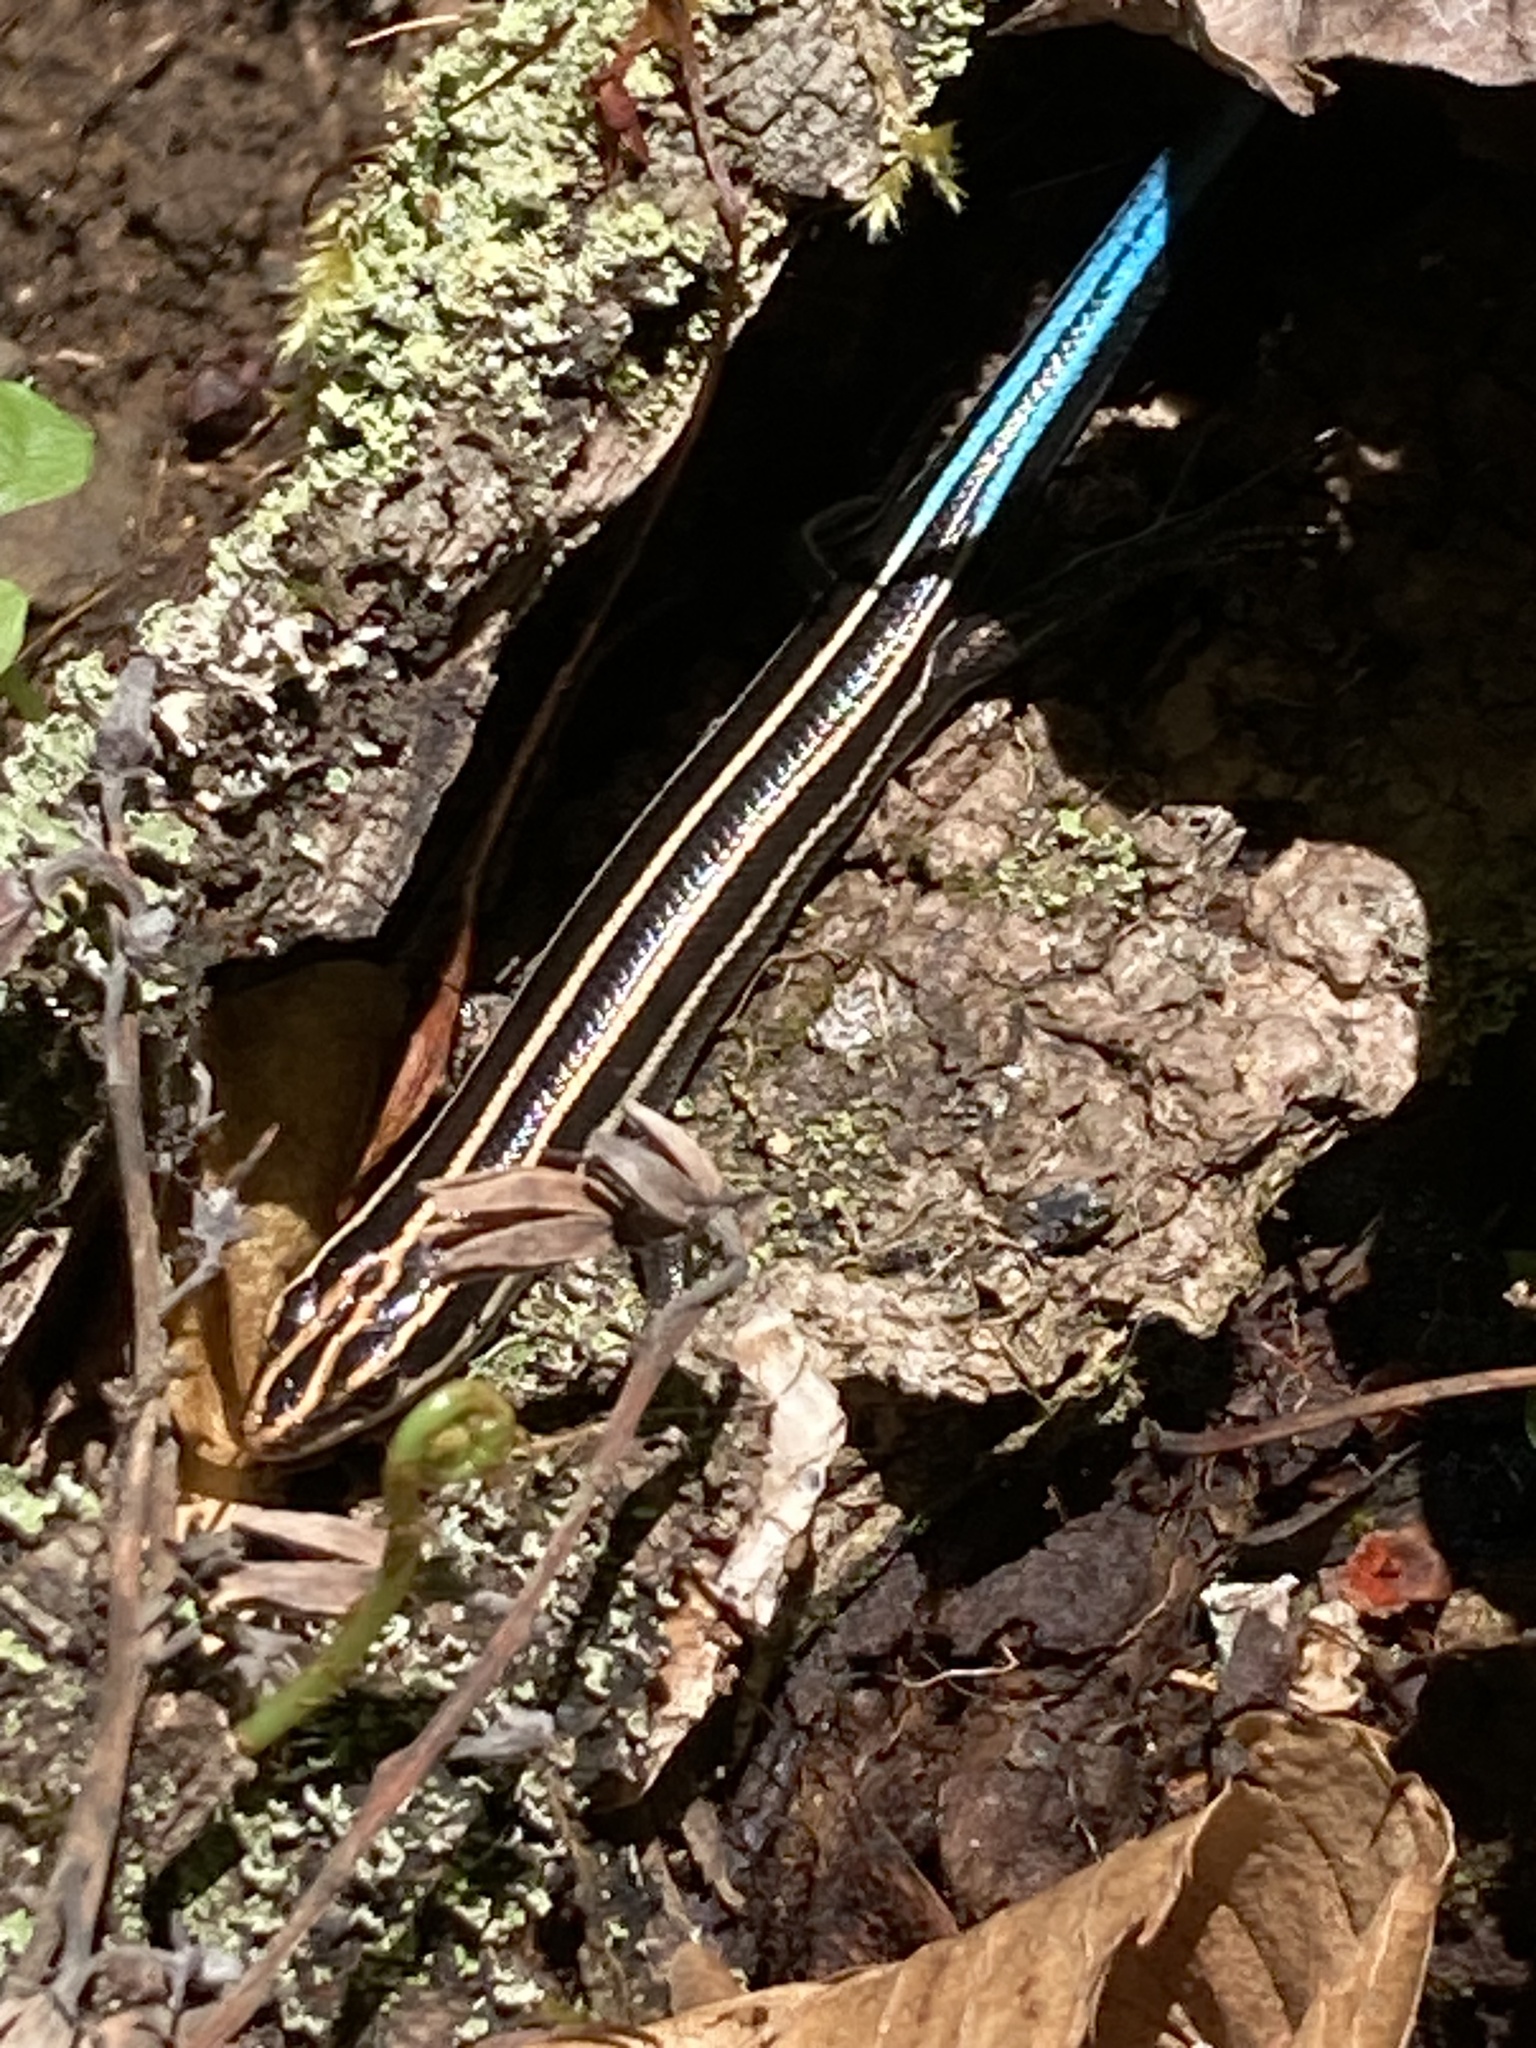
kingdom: Animalia
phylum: Chordata
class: Squamata
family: Scincidae
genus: Plestiodon
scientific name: Plestiodon fasciatus
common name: Five-lined skink
